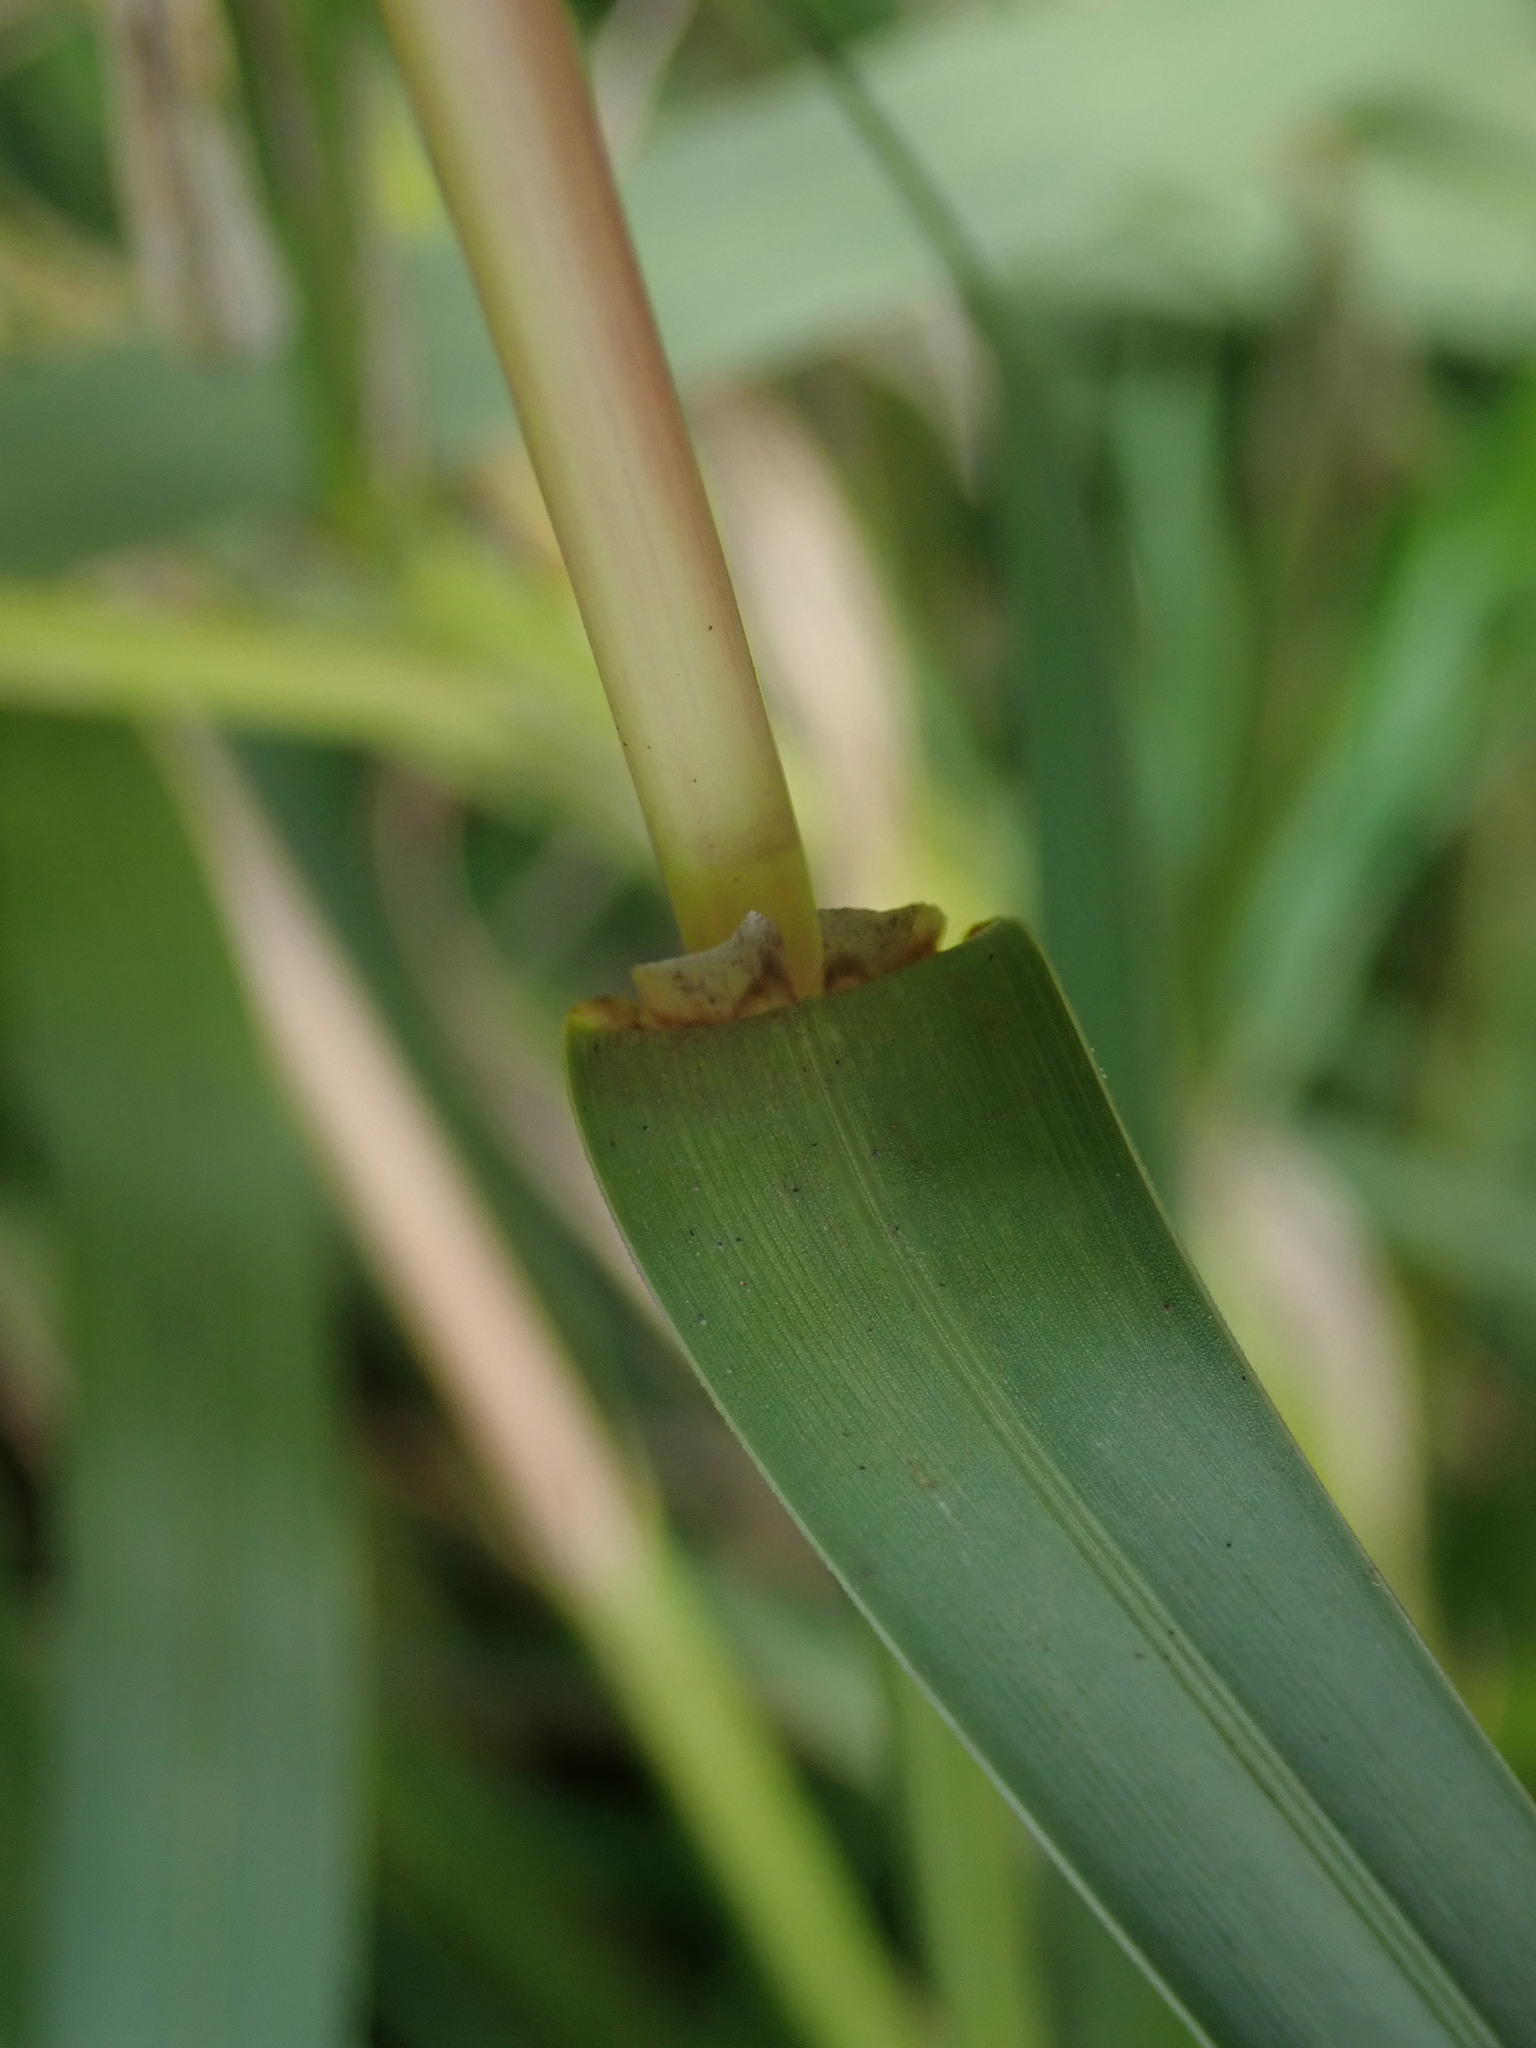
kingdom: Plantae
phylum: Tracheophyta
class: Liliopsida
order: Poales
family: Poaceae
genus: Glyceria
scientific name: Glyceria maxima
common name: Reed mannagrass
